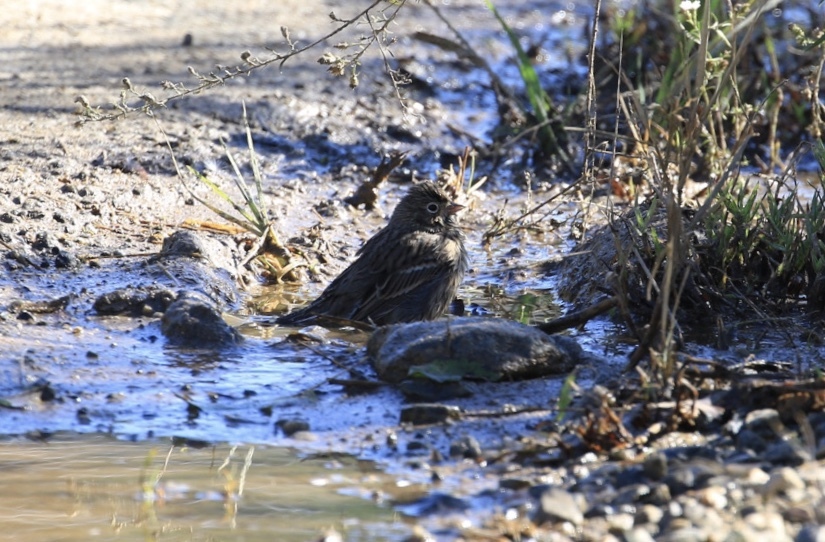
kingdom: Animalia
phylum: Chordata
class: Aves
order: Passeriformes
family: Passerellidae
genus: Pooecetes
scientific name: Pooecetes gramineus
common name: Vesper sparrow
